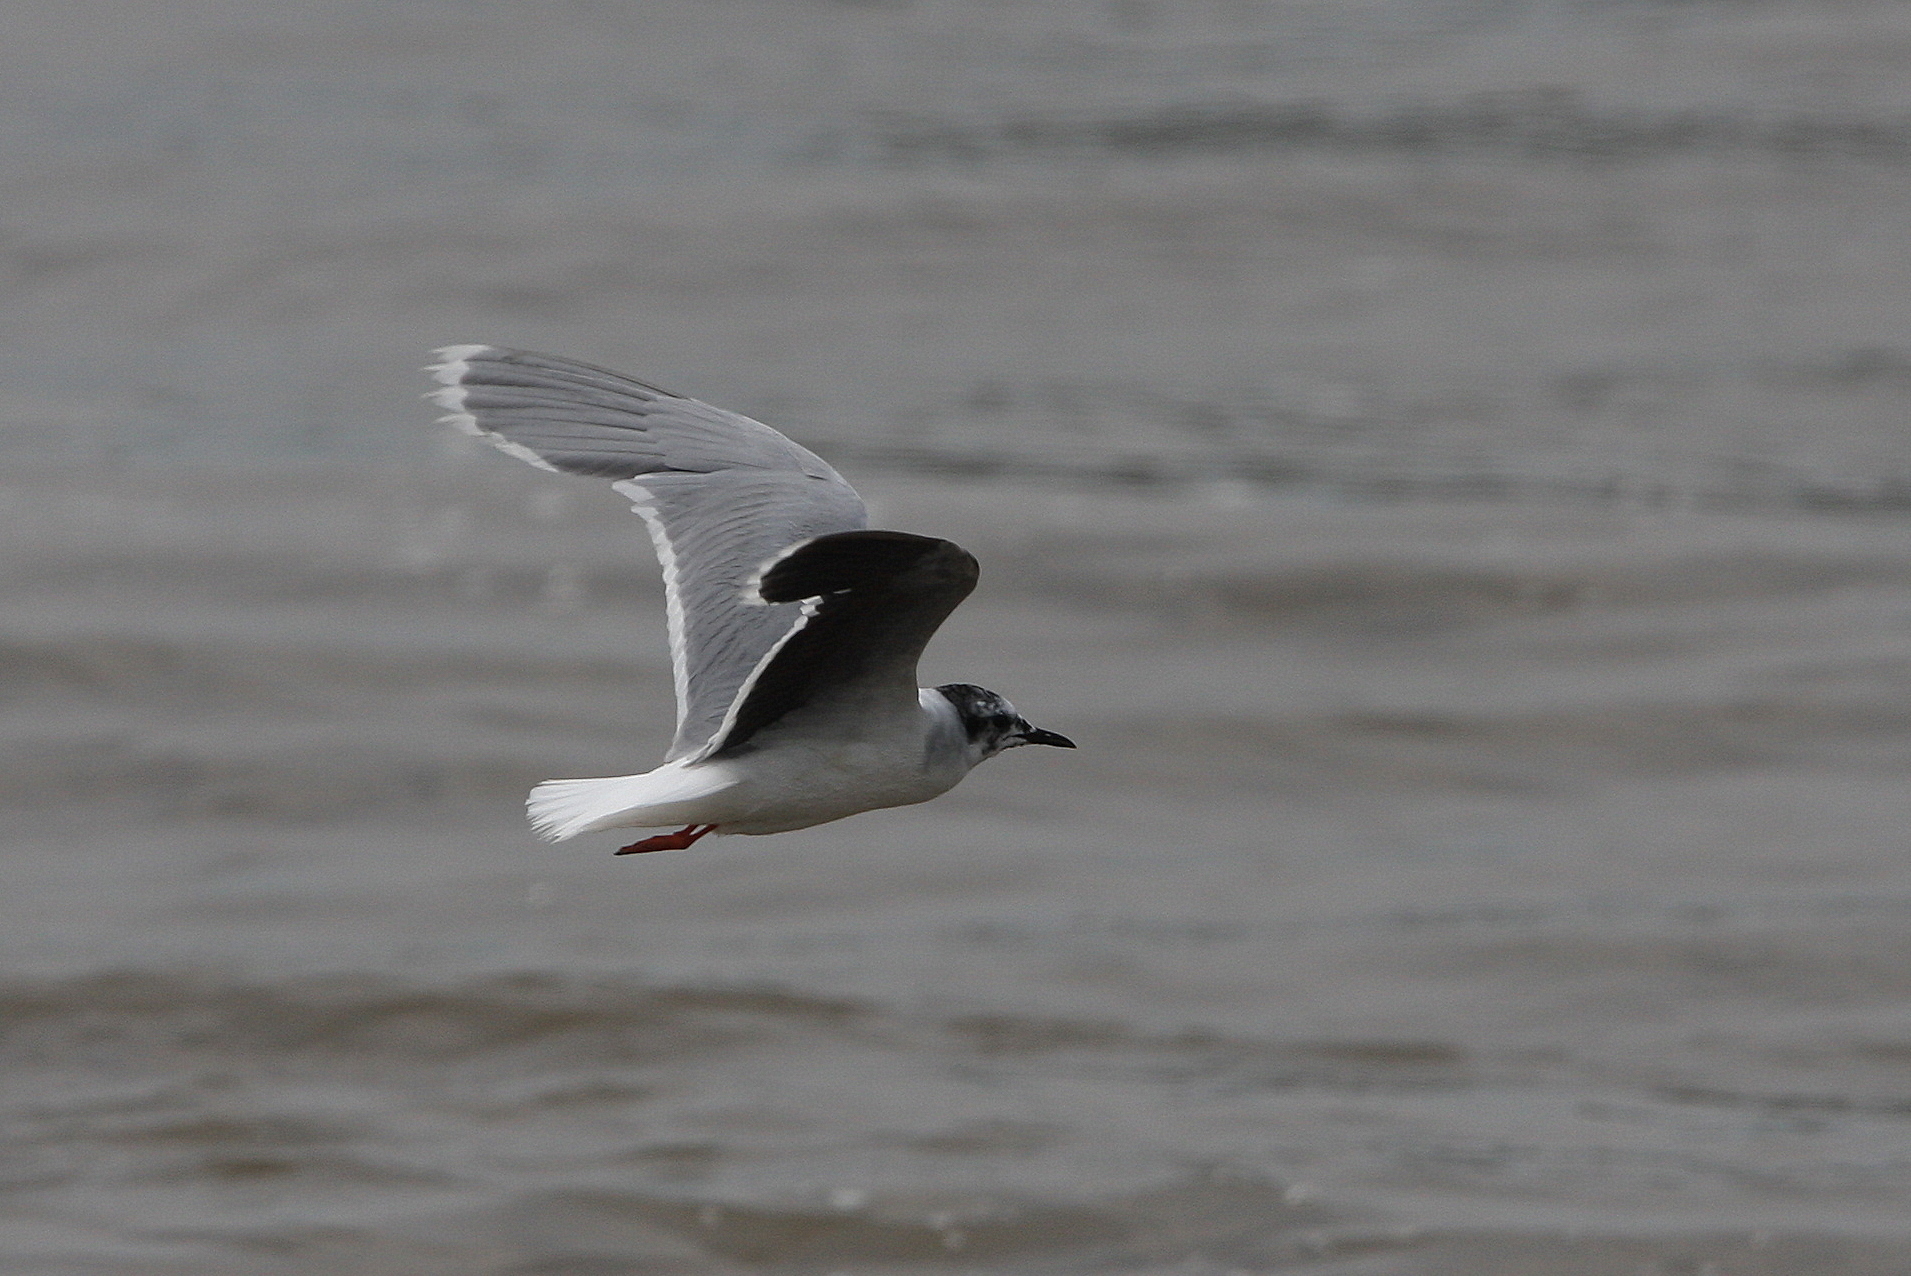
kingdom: Animalia
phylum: Chordata
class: Aves
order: Charadriiformes
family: Laridae
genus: Hydrocoloeus
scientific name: Hydrocoloeus minutus
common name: Little gull
